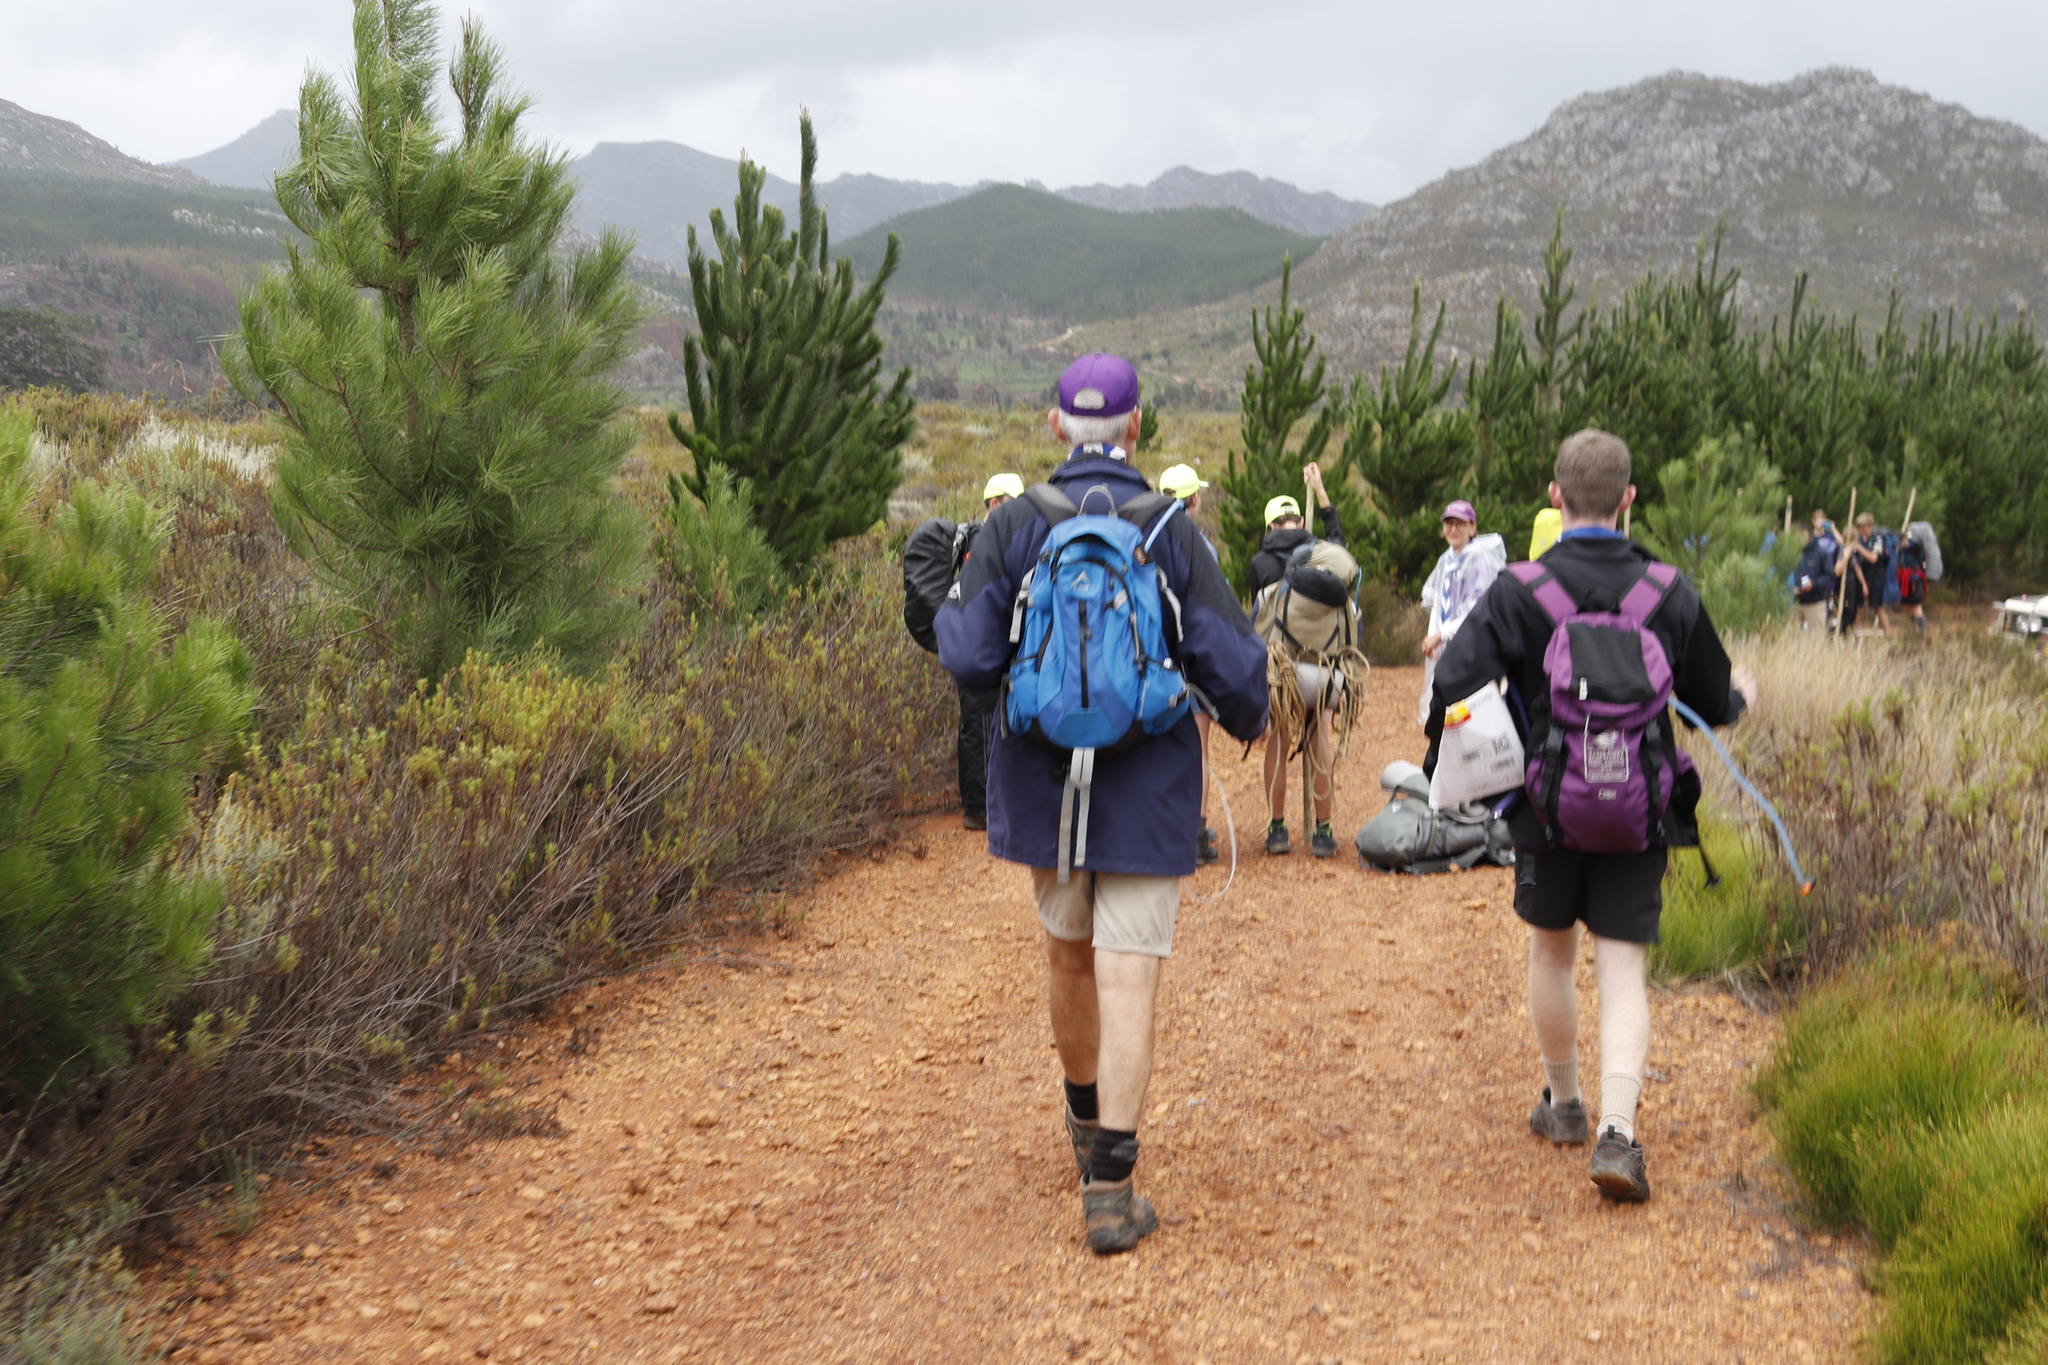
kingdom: Plantae
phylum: Tracheophyta
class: Pinopsida
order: Pinales
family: Pinaceae
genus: Pinus
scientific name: Pinus radiata
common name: Monterey pine
